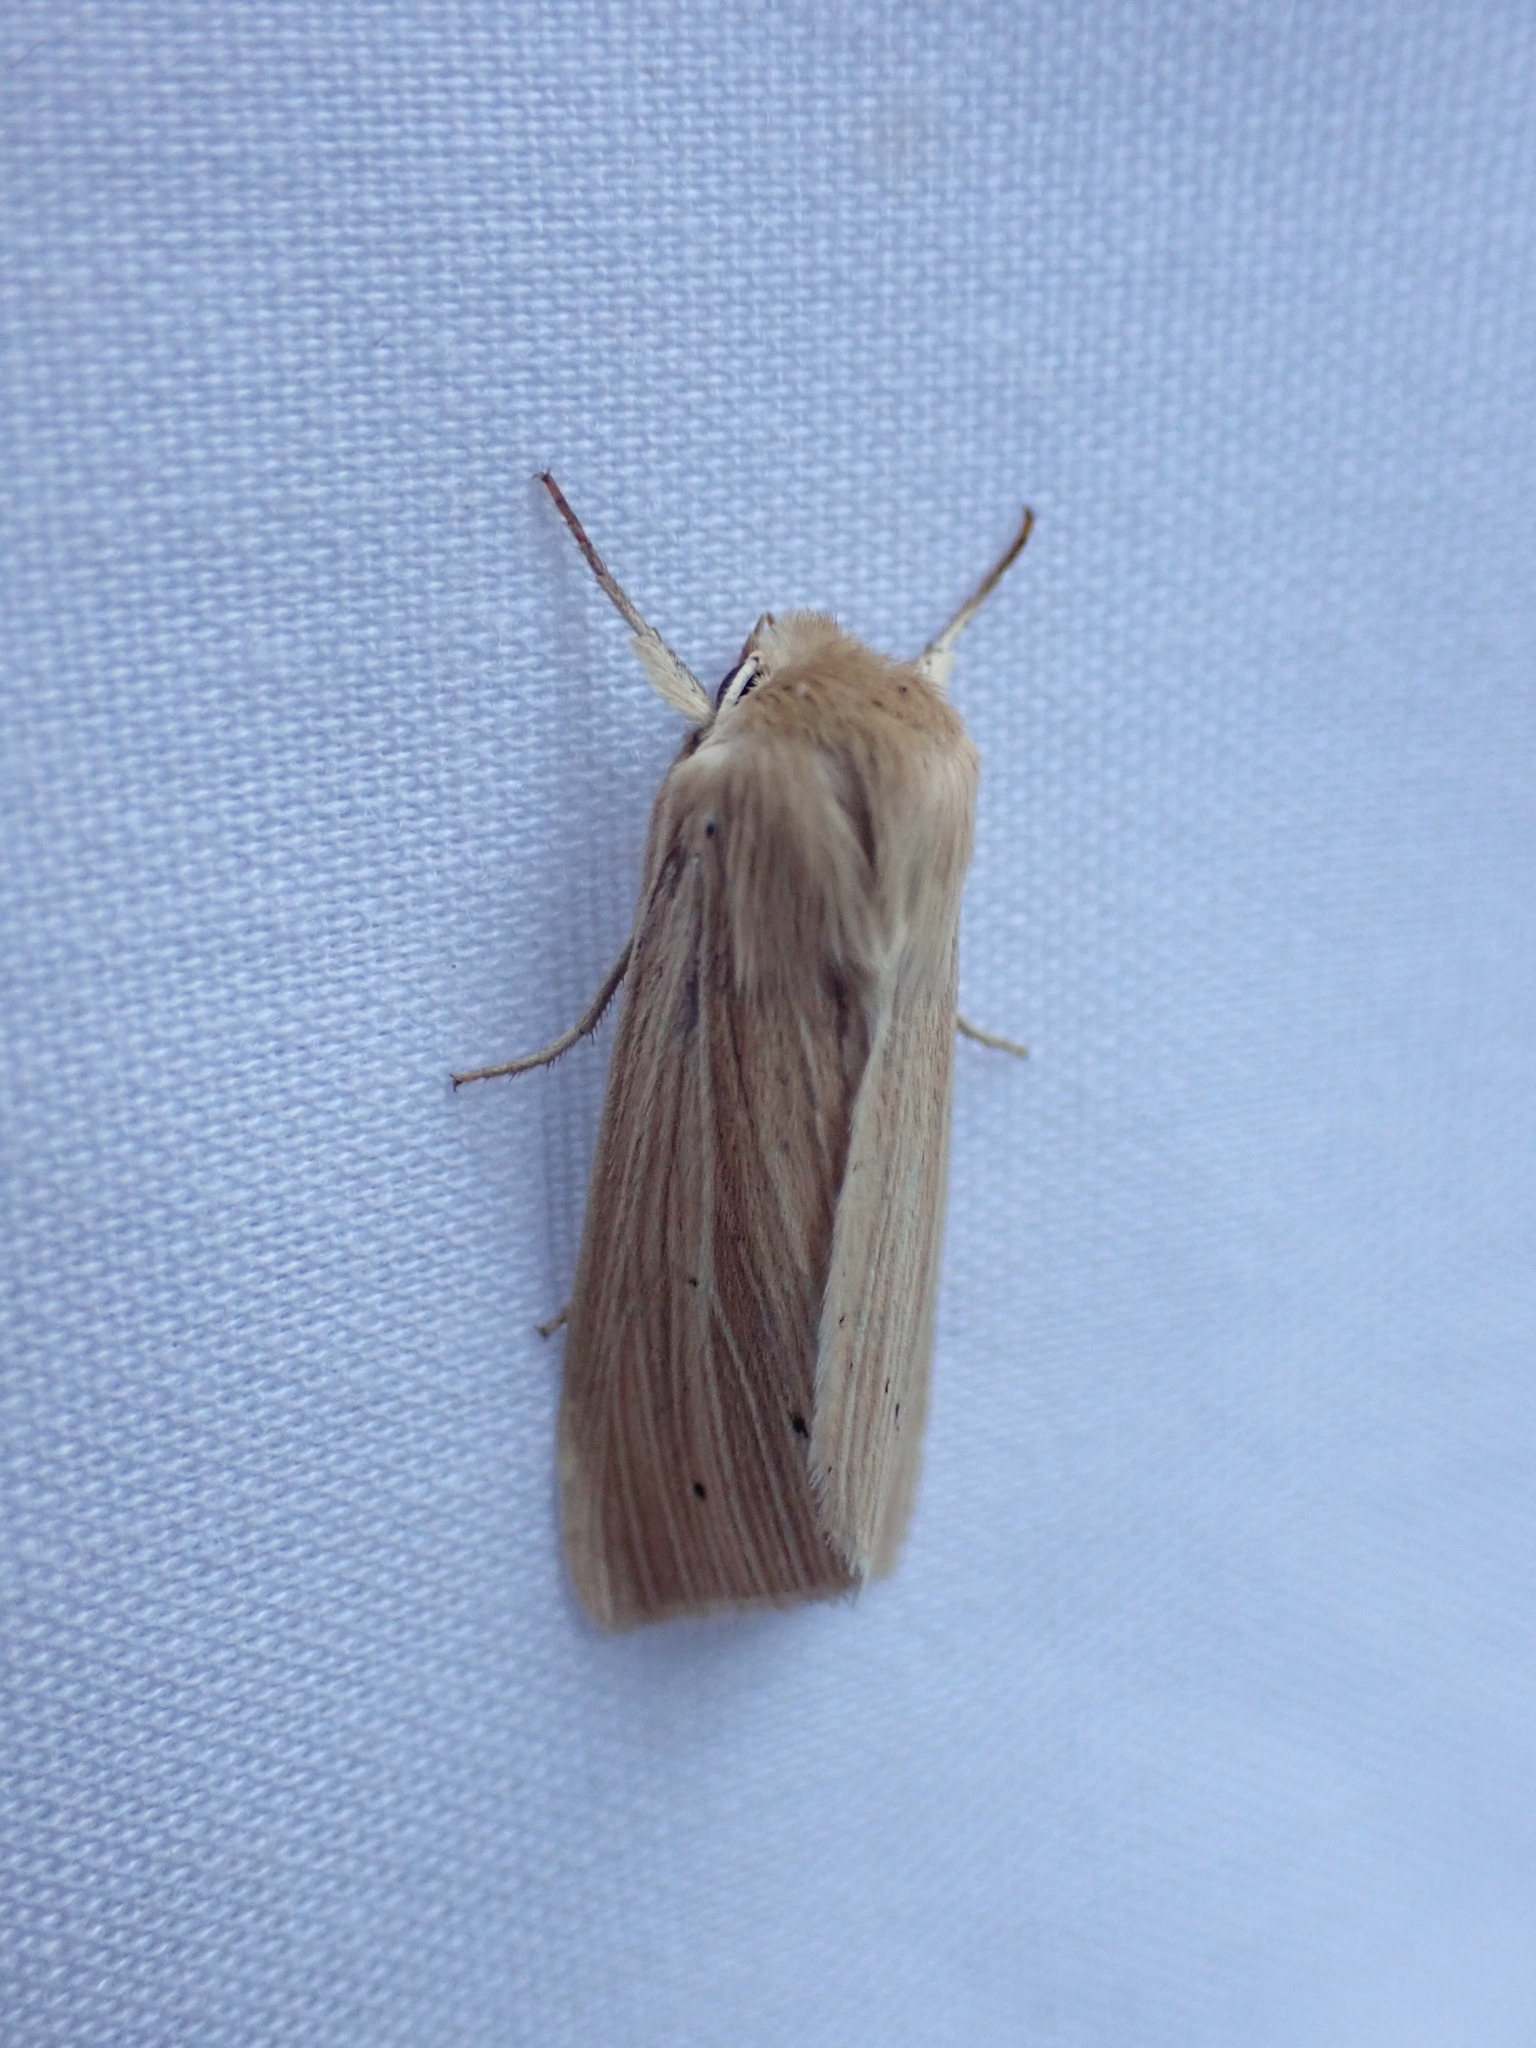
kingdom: Animalia
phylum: Arthropoda
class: Insecta
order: Lepidoptera
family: Noctuidae
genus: Mythimna
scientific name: Mythimna oxygala
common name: Lesser wainscot
